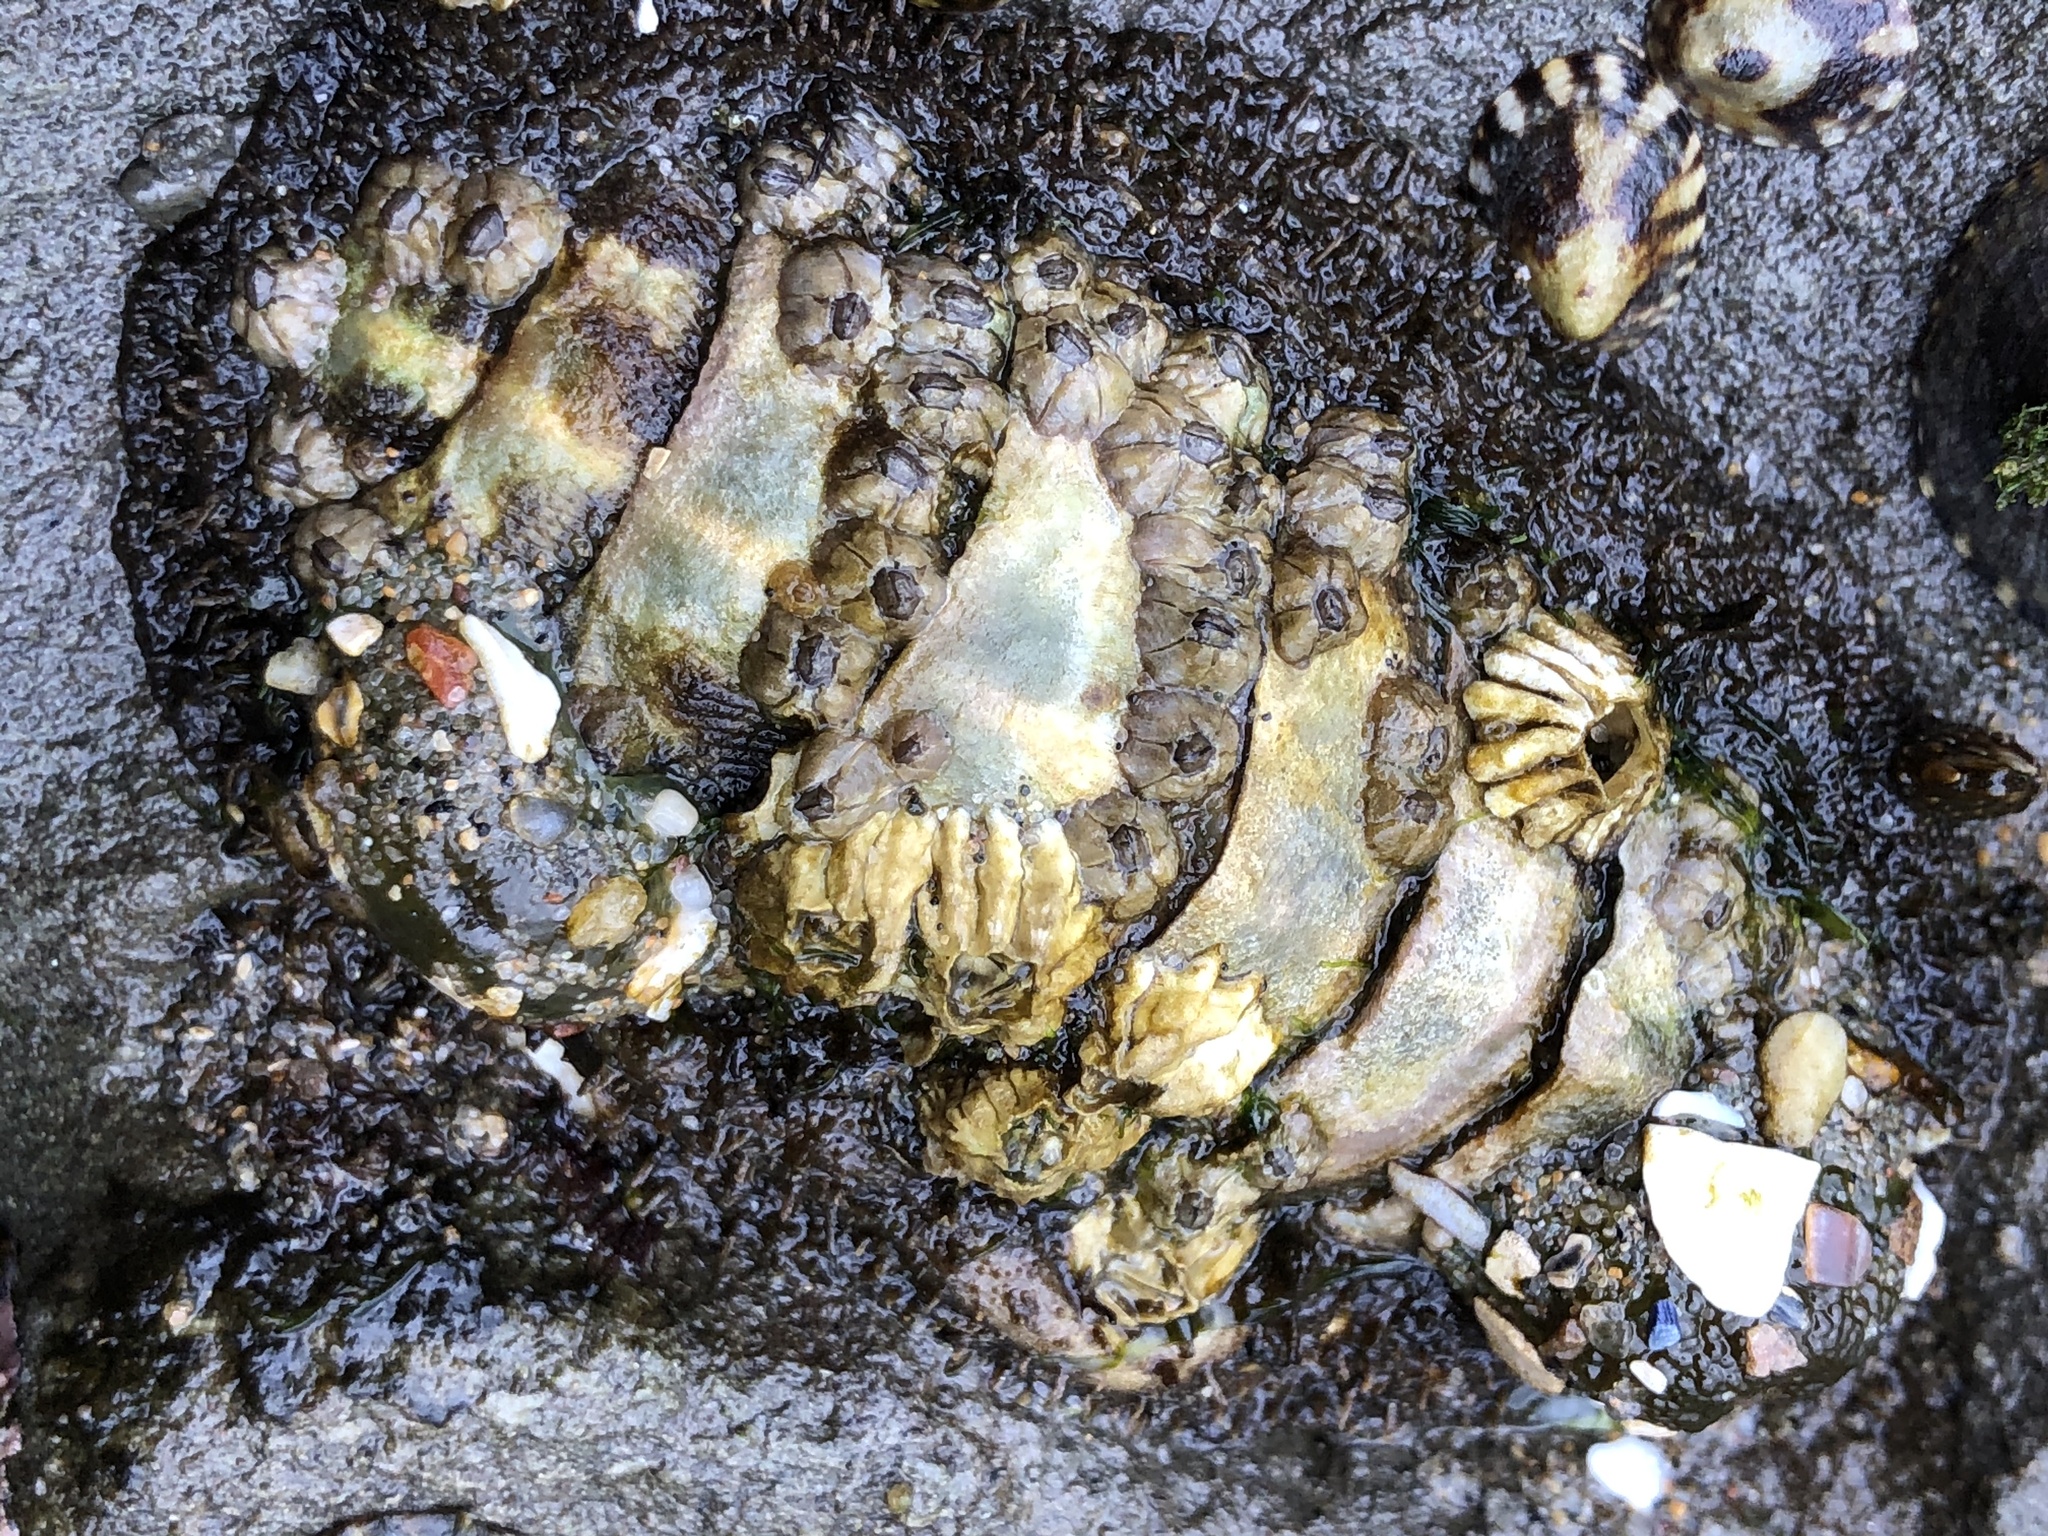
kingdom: Animalia
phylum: Mollusca
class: Polyplacophora
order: Chitonida
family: Mopaliidae
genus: Mopalia
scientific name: Mopalia muscosa
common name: Mossy chiton
